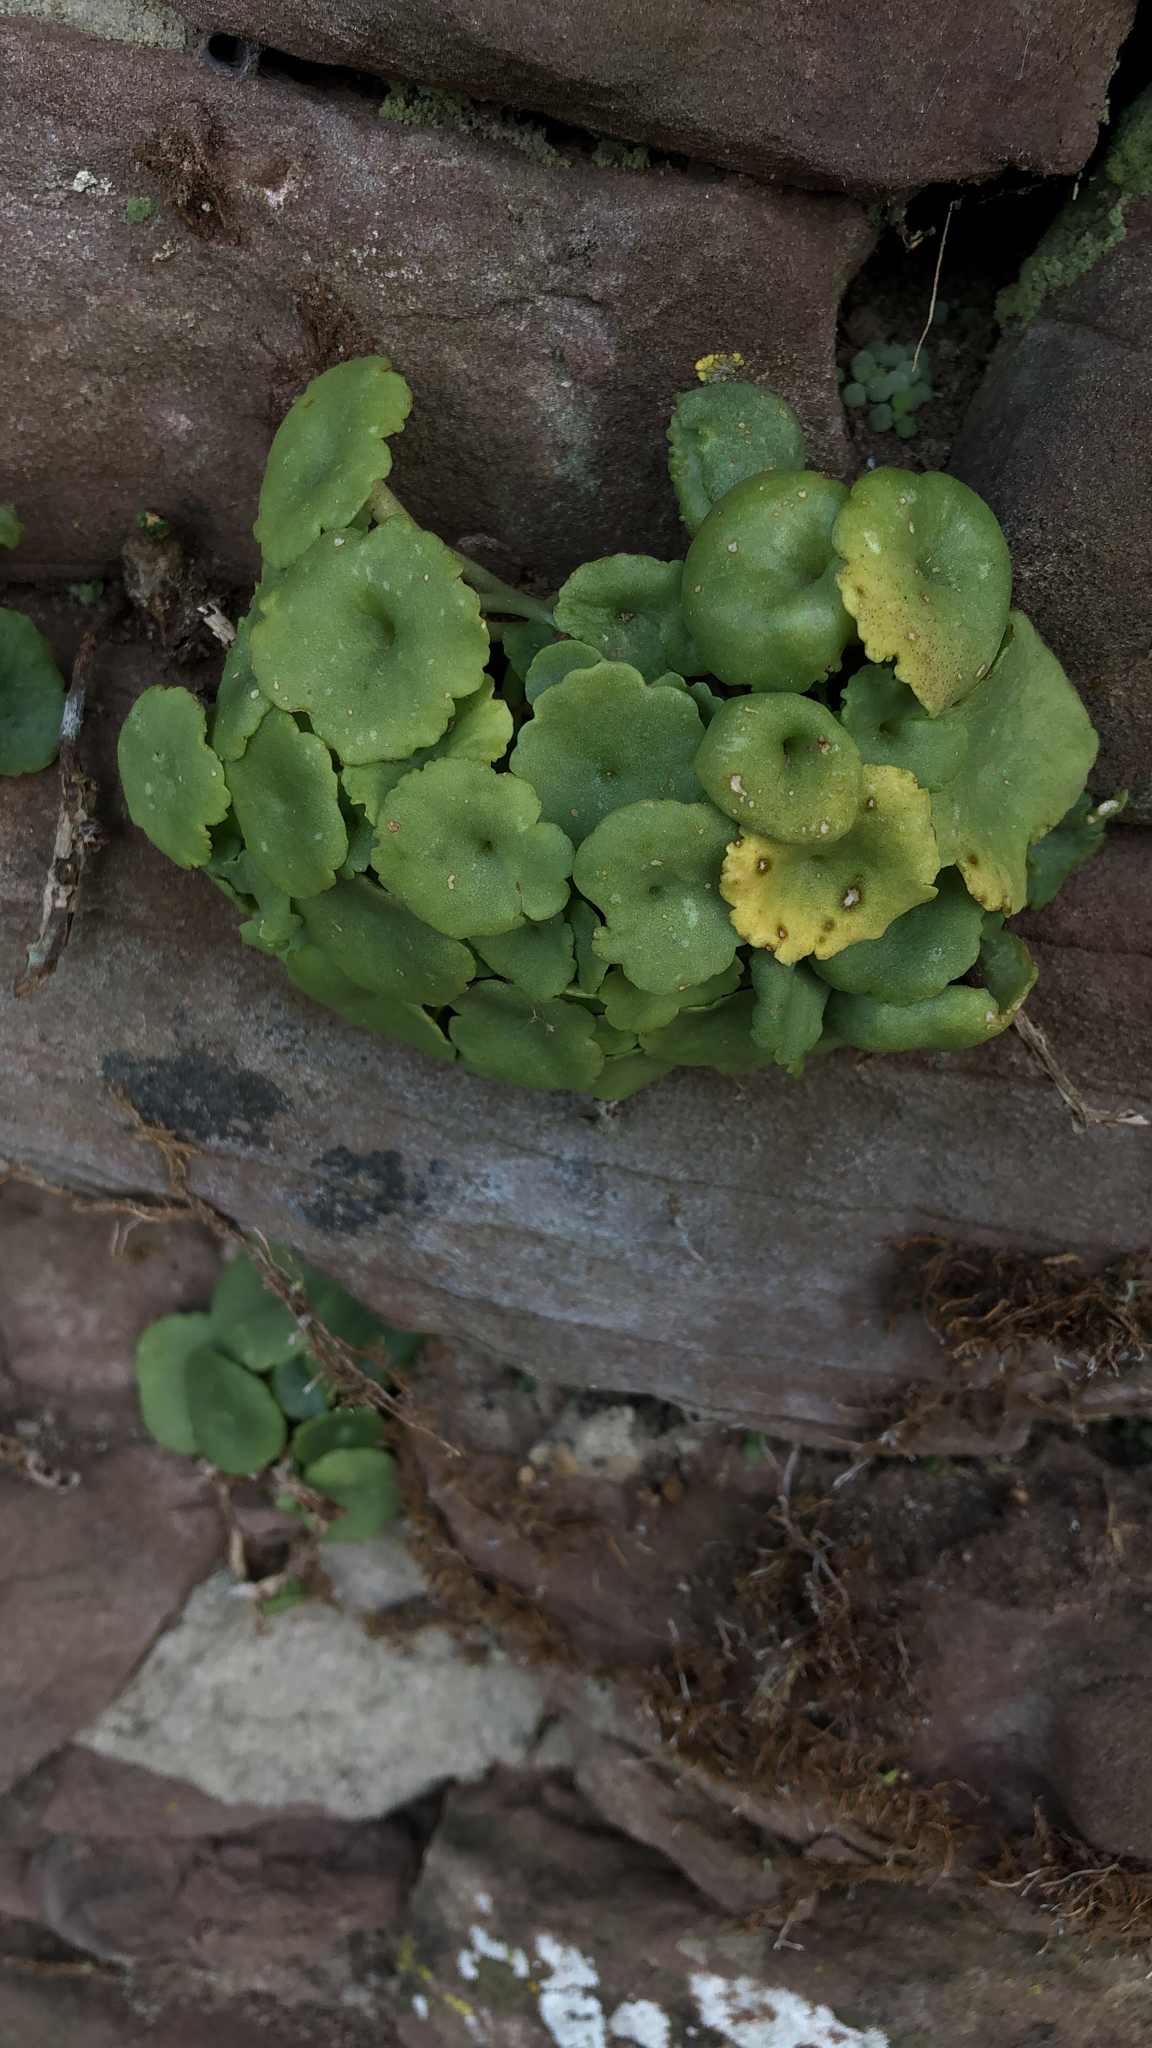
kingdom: Plantae
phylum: Tracheophyta
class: Magnoliopsida
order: Saxifragales
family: Crassulaceae
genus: Umbilicus
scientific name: Umbilicus rupestris
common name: Navelwort
